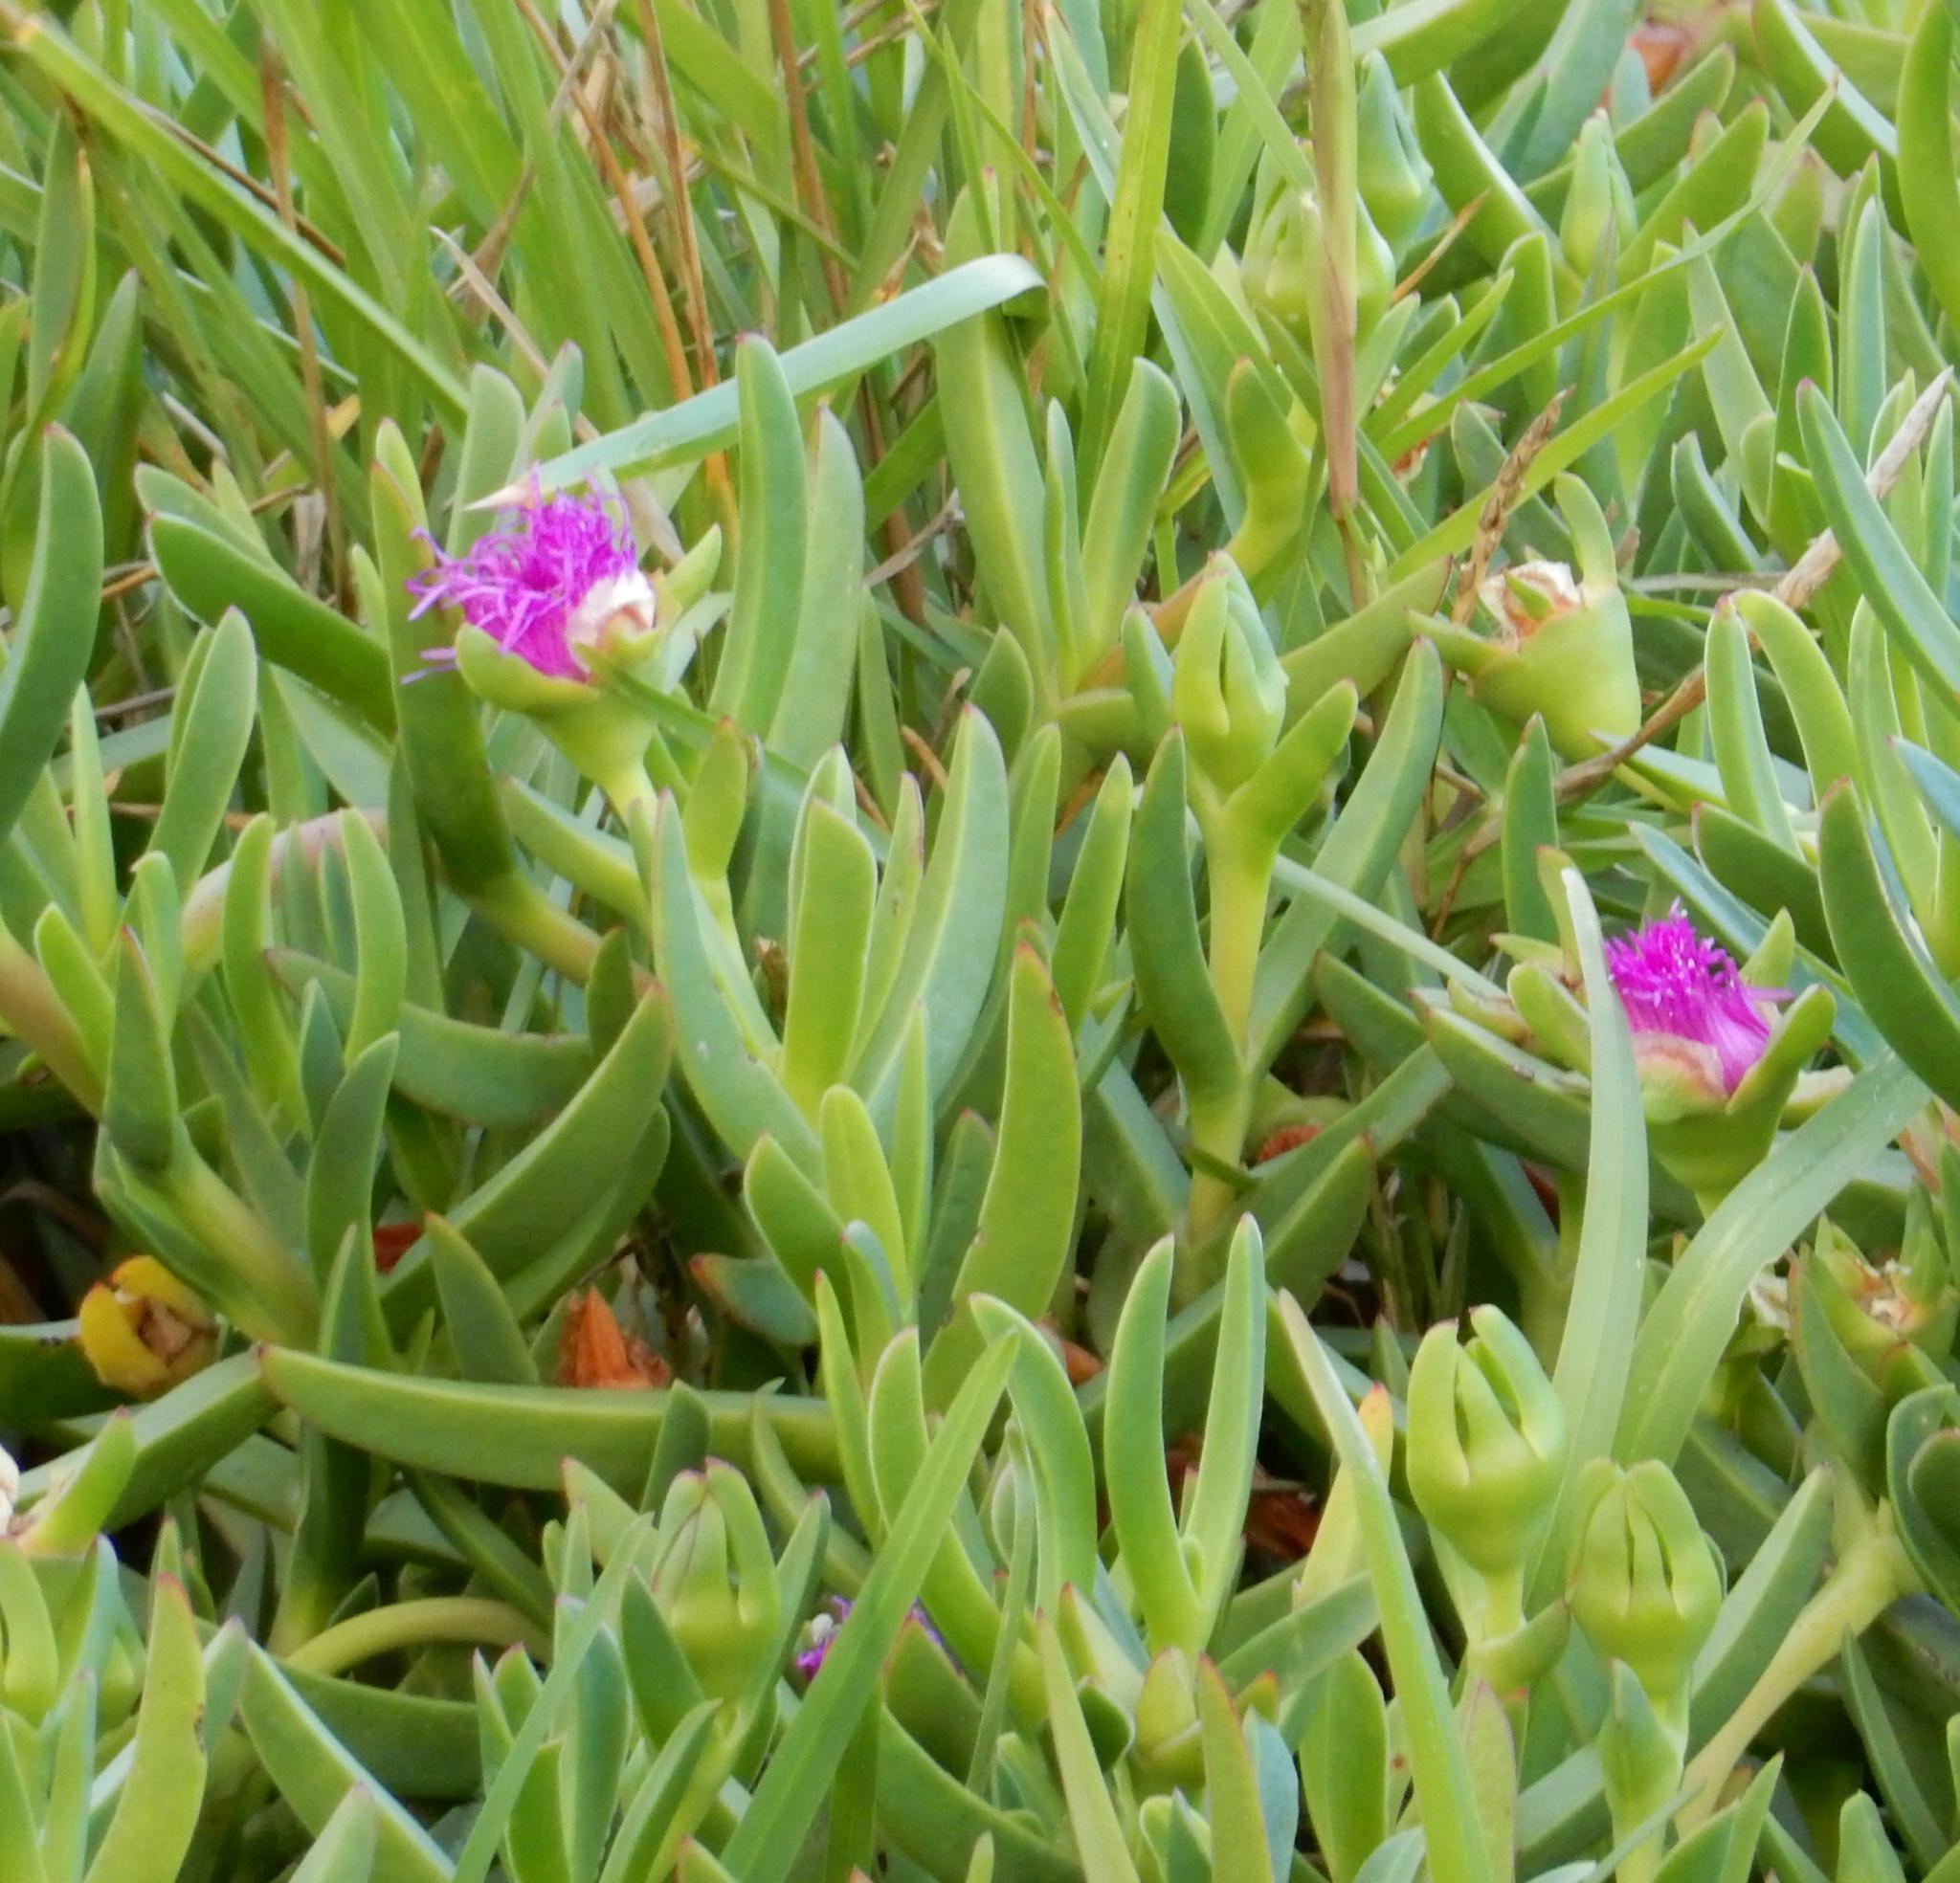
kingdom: Plantae
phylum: Tracheophyta
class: Magnoliopsida
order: Caryophyllales
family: Aizoaceae
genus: Carpobrotus
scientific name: Carpobrotus deliciosus
